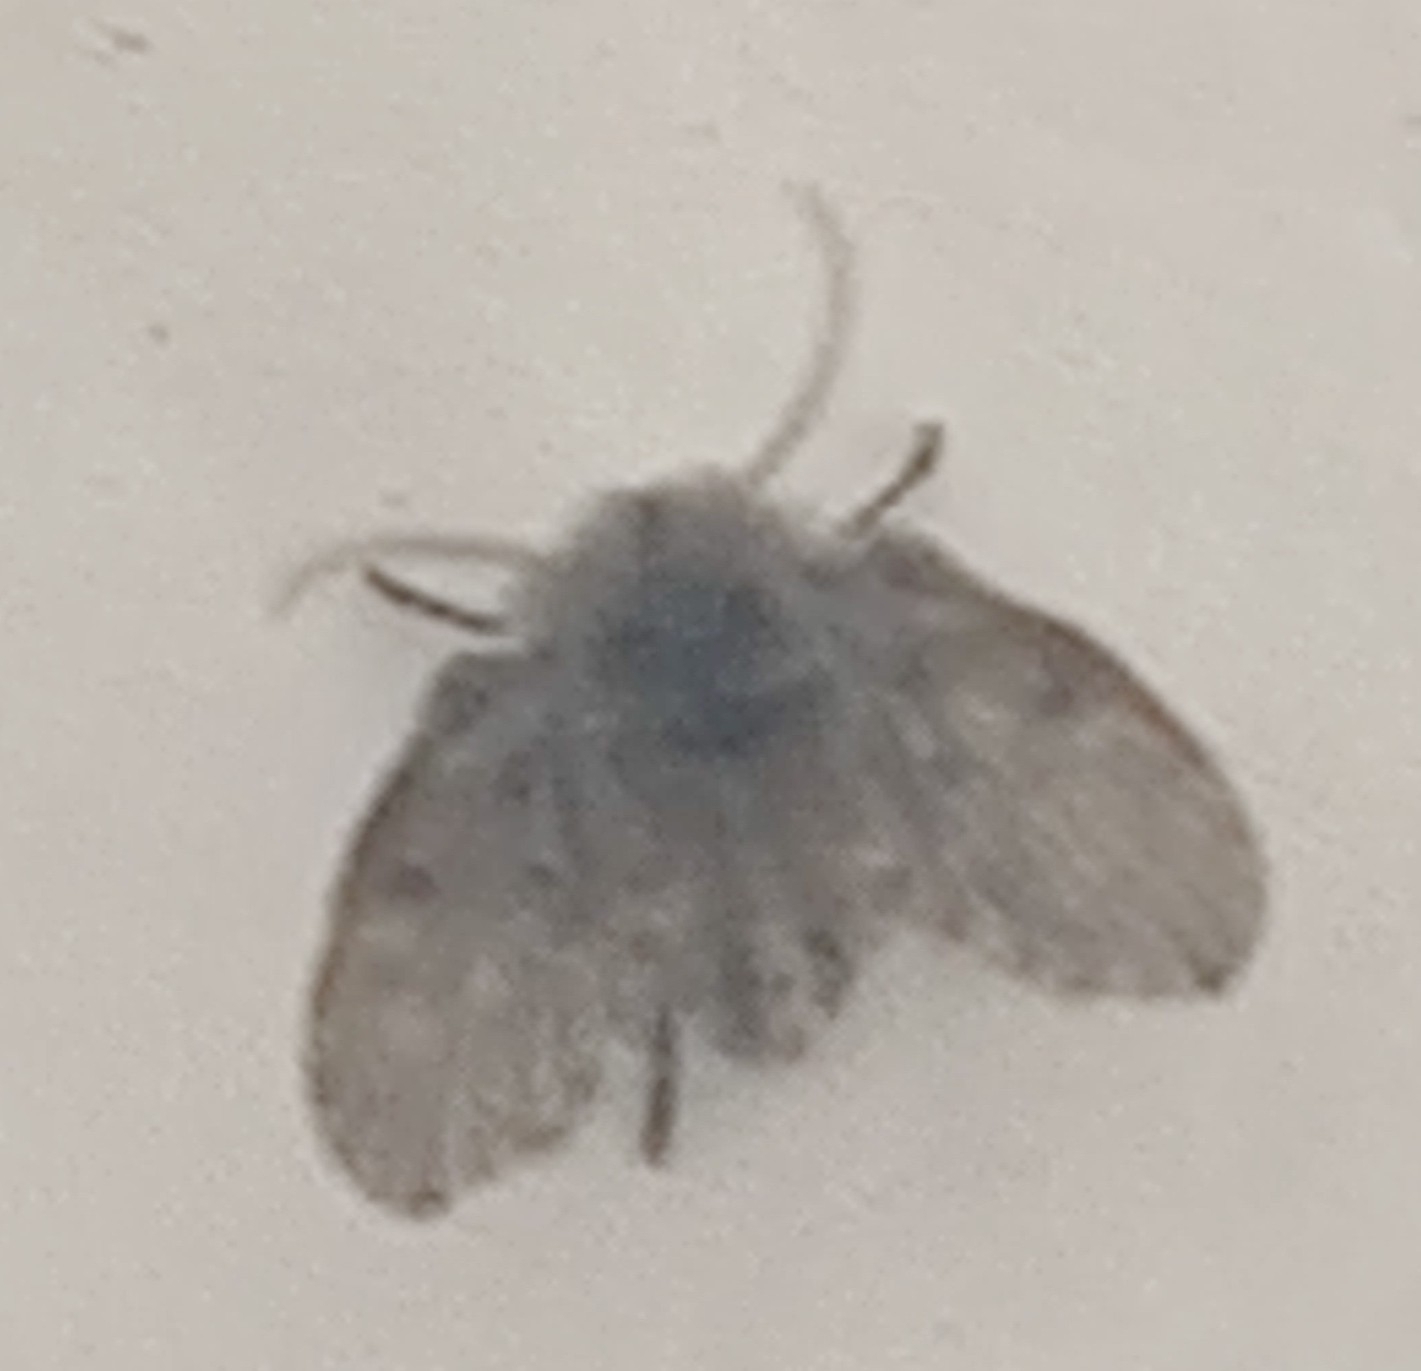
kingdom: Animalia
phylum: Arthropoda
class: Insecta
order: Diptera
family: Psychodidae
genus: Clogmia
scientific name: Clogmia albipunctatus
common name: White-spotted moth fly
